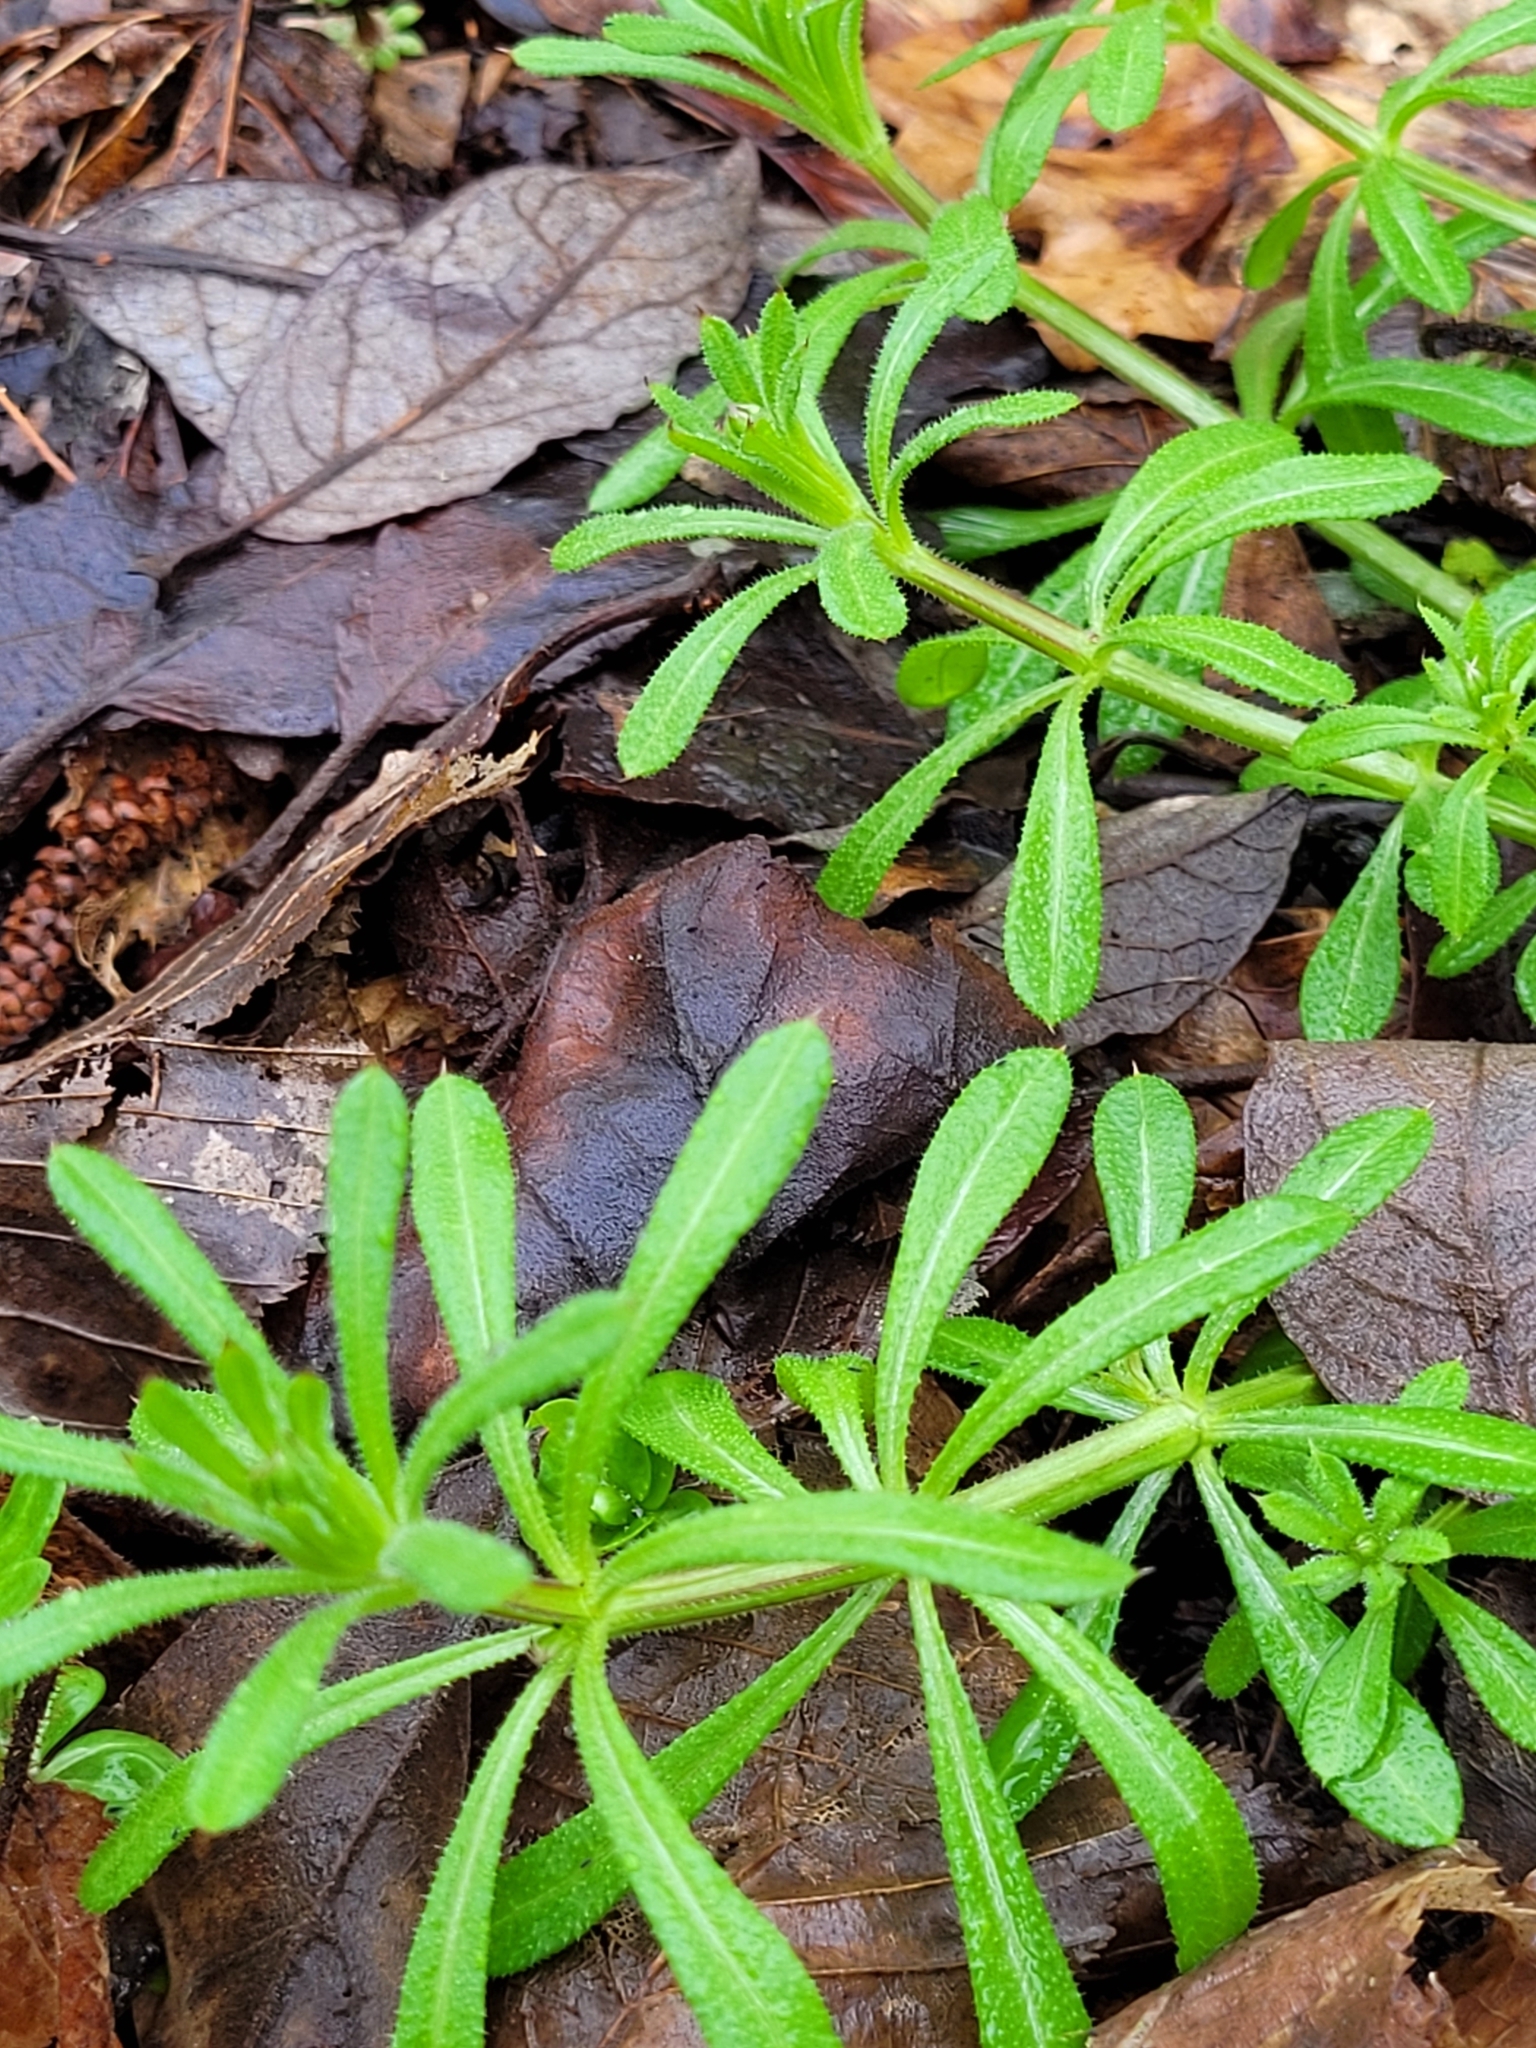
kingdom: Plantae
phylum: Tracheophyta
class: Magnoliopsida
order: Gentianales
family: Rubiaceae
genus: Galium
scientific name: Galium aparine
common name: Cleavers
